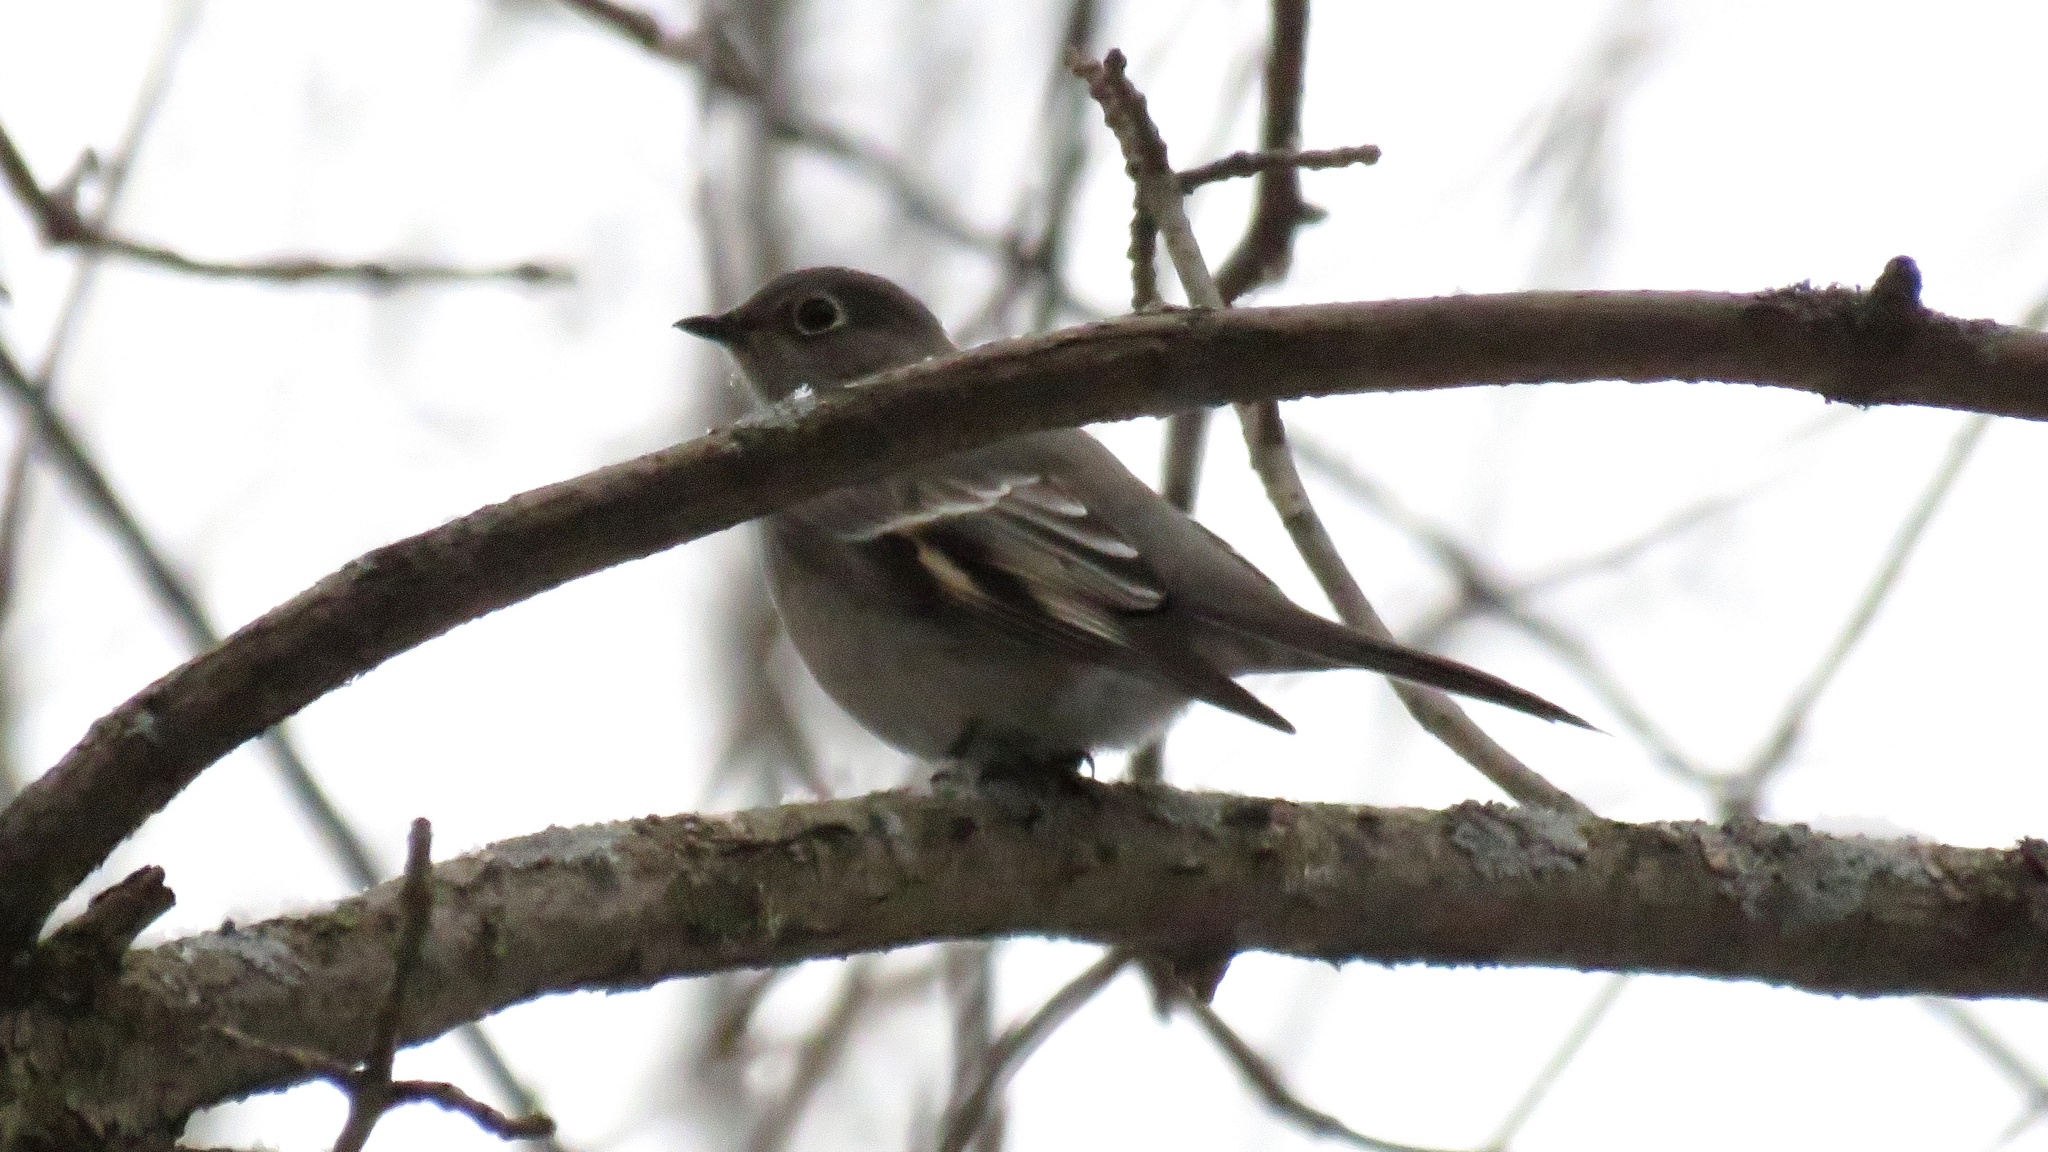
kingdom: Animalia
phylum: Chordata
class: Aves
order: Passeriformes
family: Turdidae
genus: Myadestes
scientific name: Myadestes townsendi
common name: Townsend's solitaire
